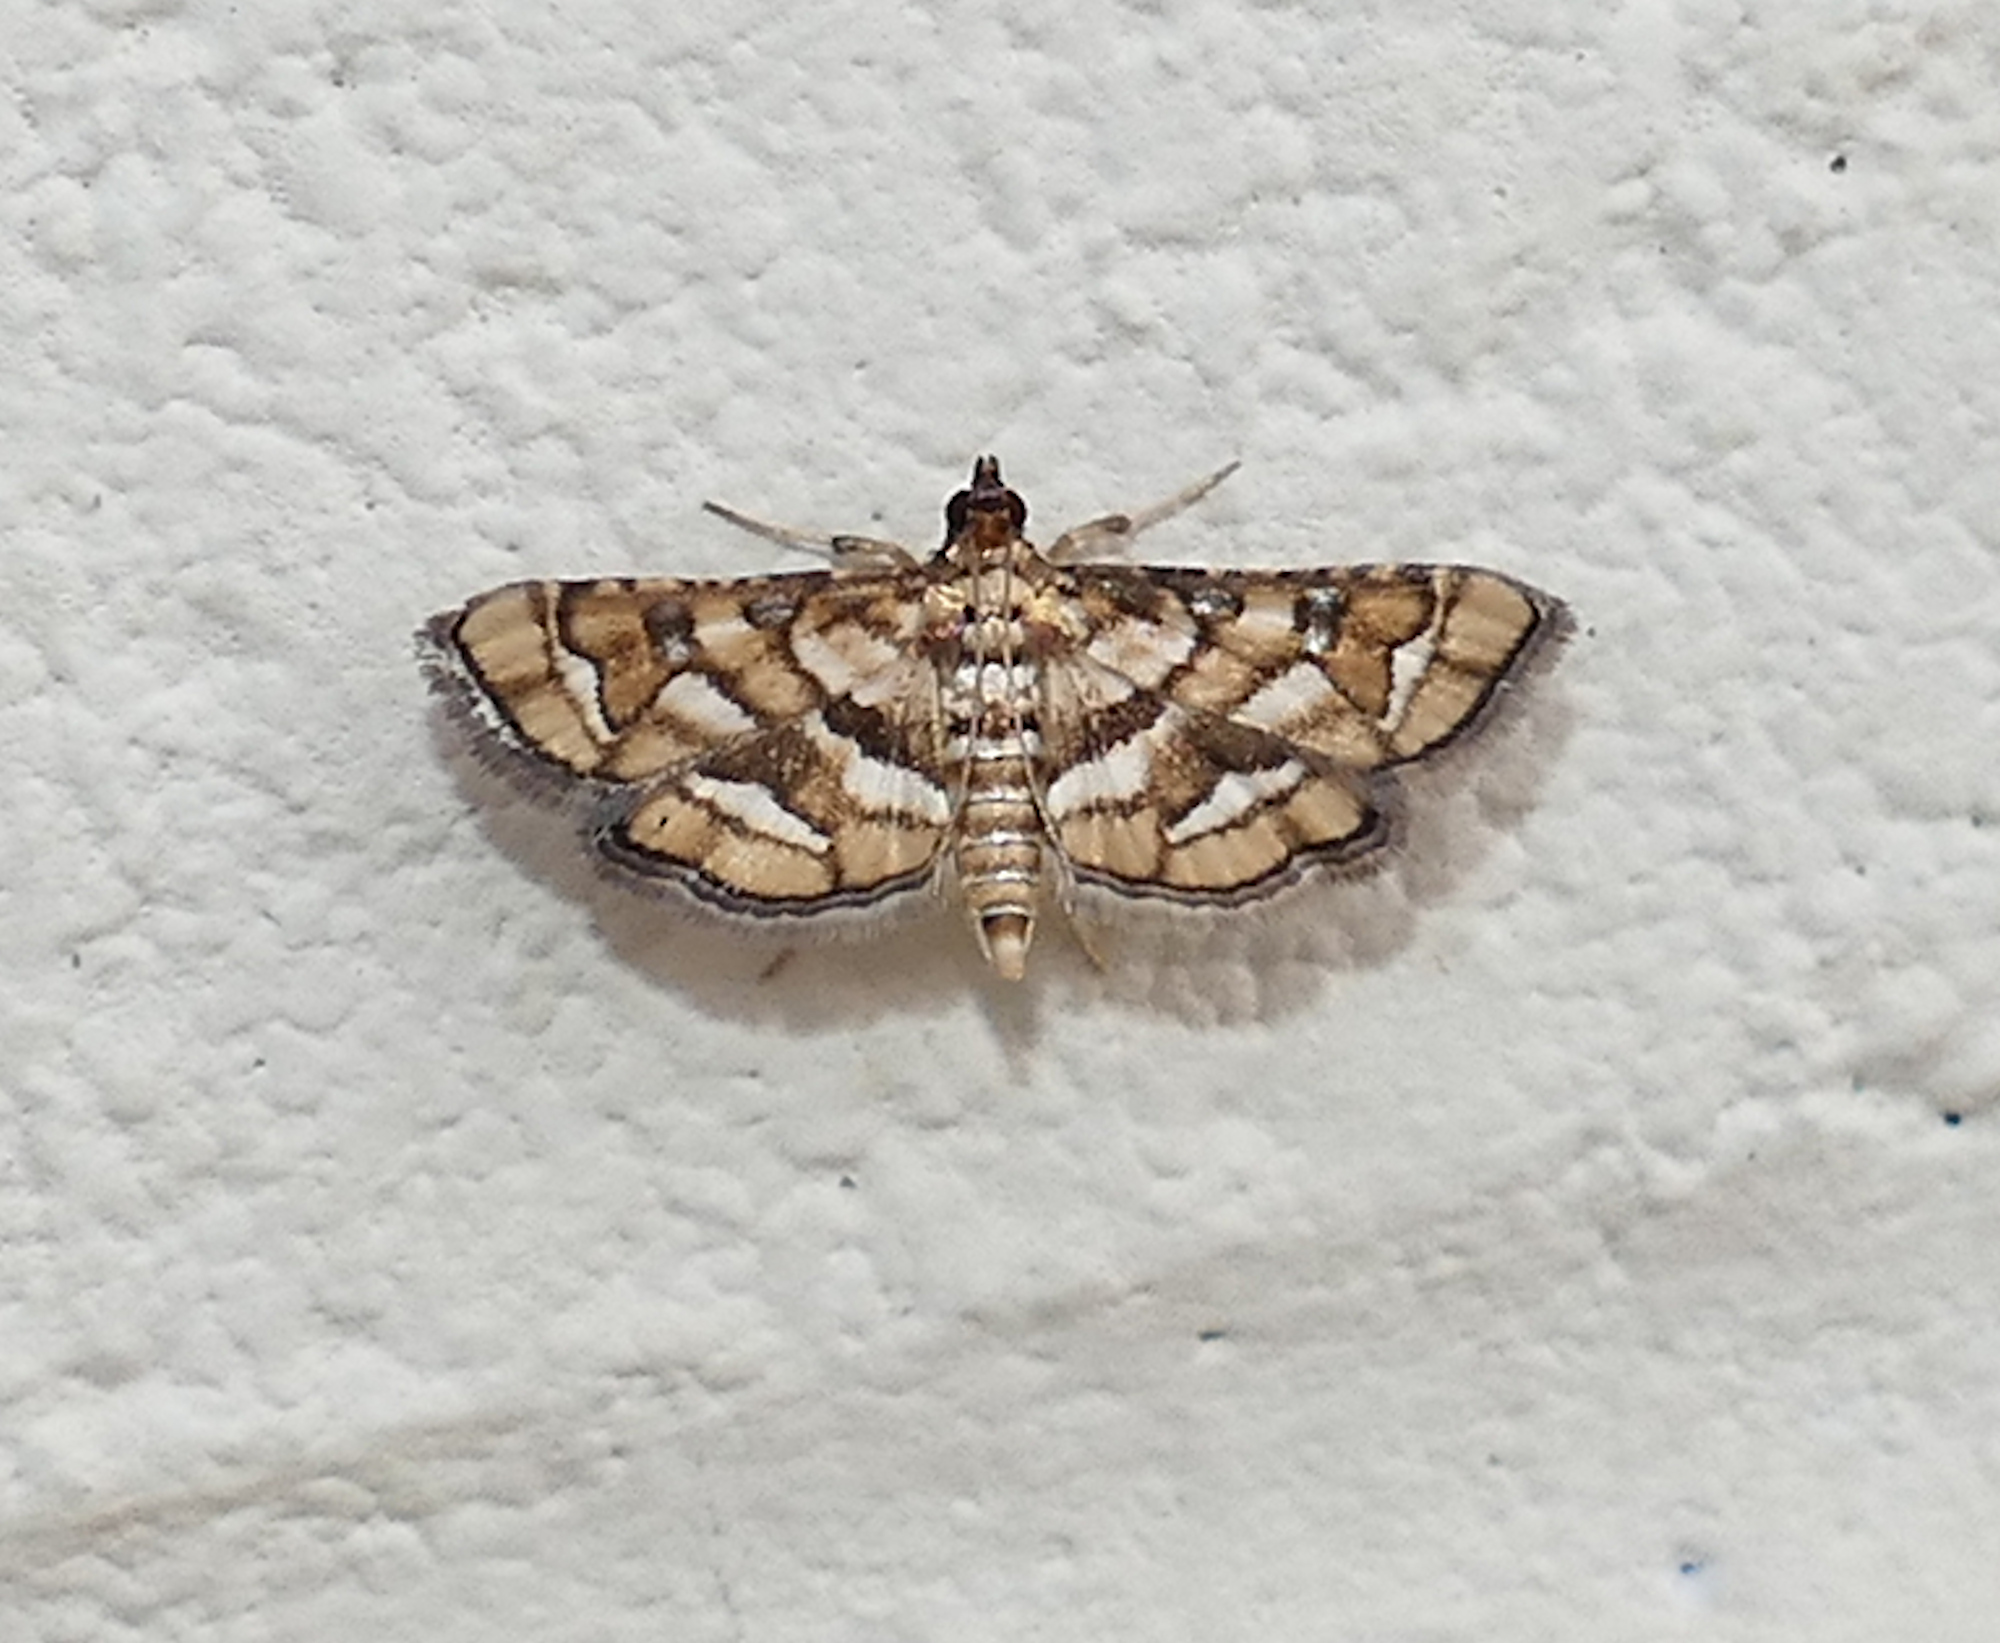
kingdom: Animalia
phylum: Arthropoda
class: Insecta
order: Lepidoptera
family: Crambidae
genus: Hileithia
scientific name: Hileithia magualis
